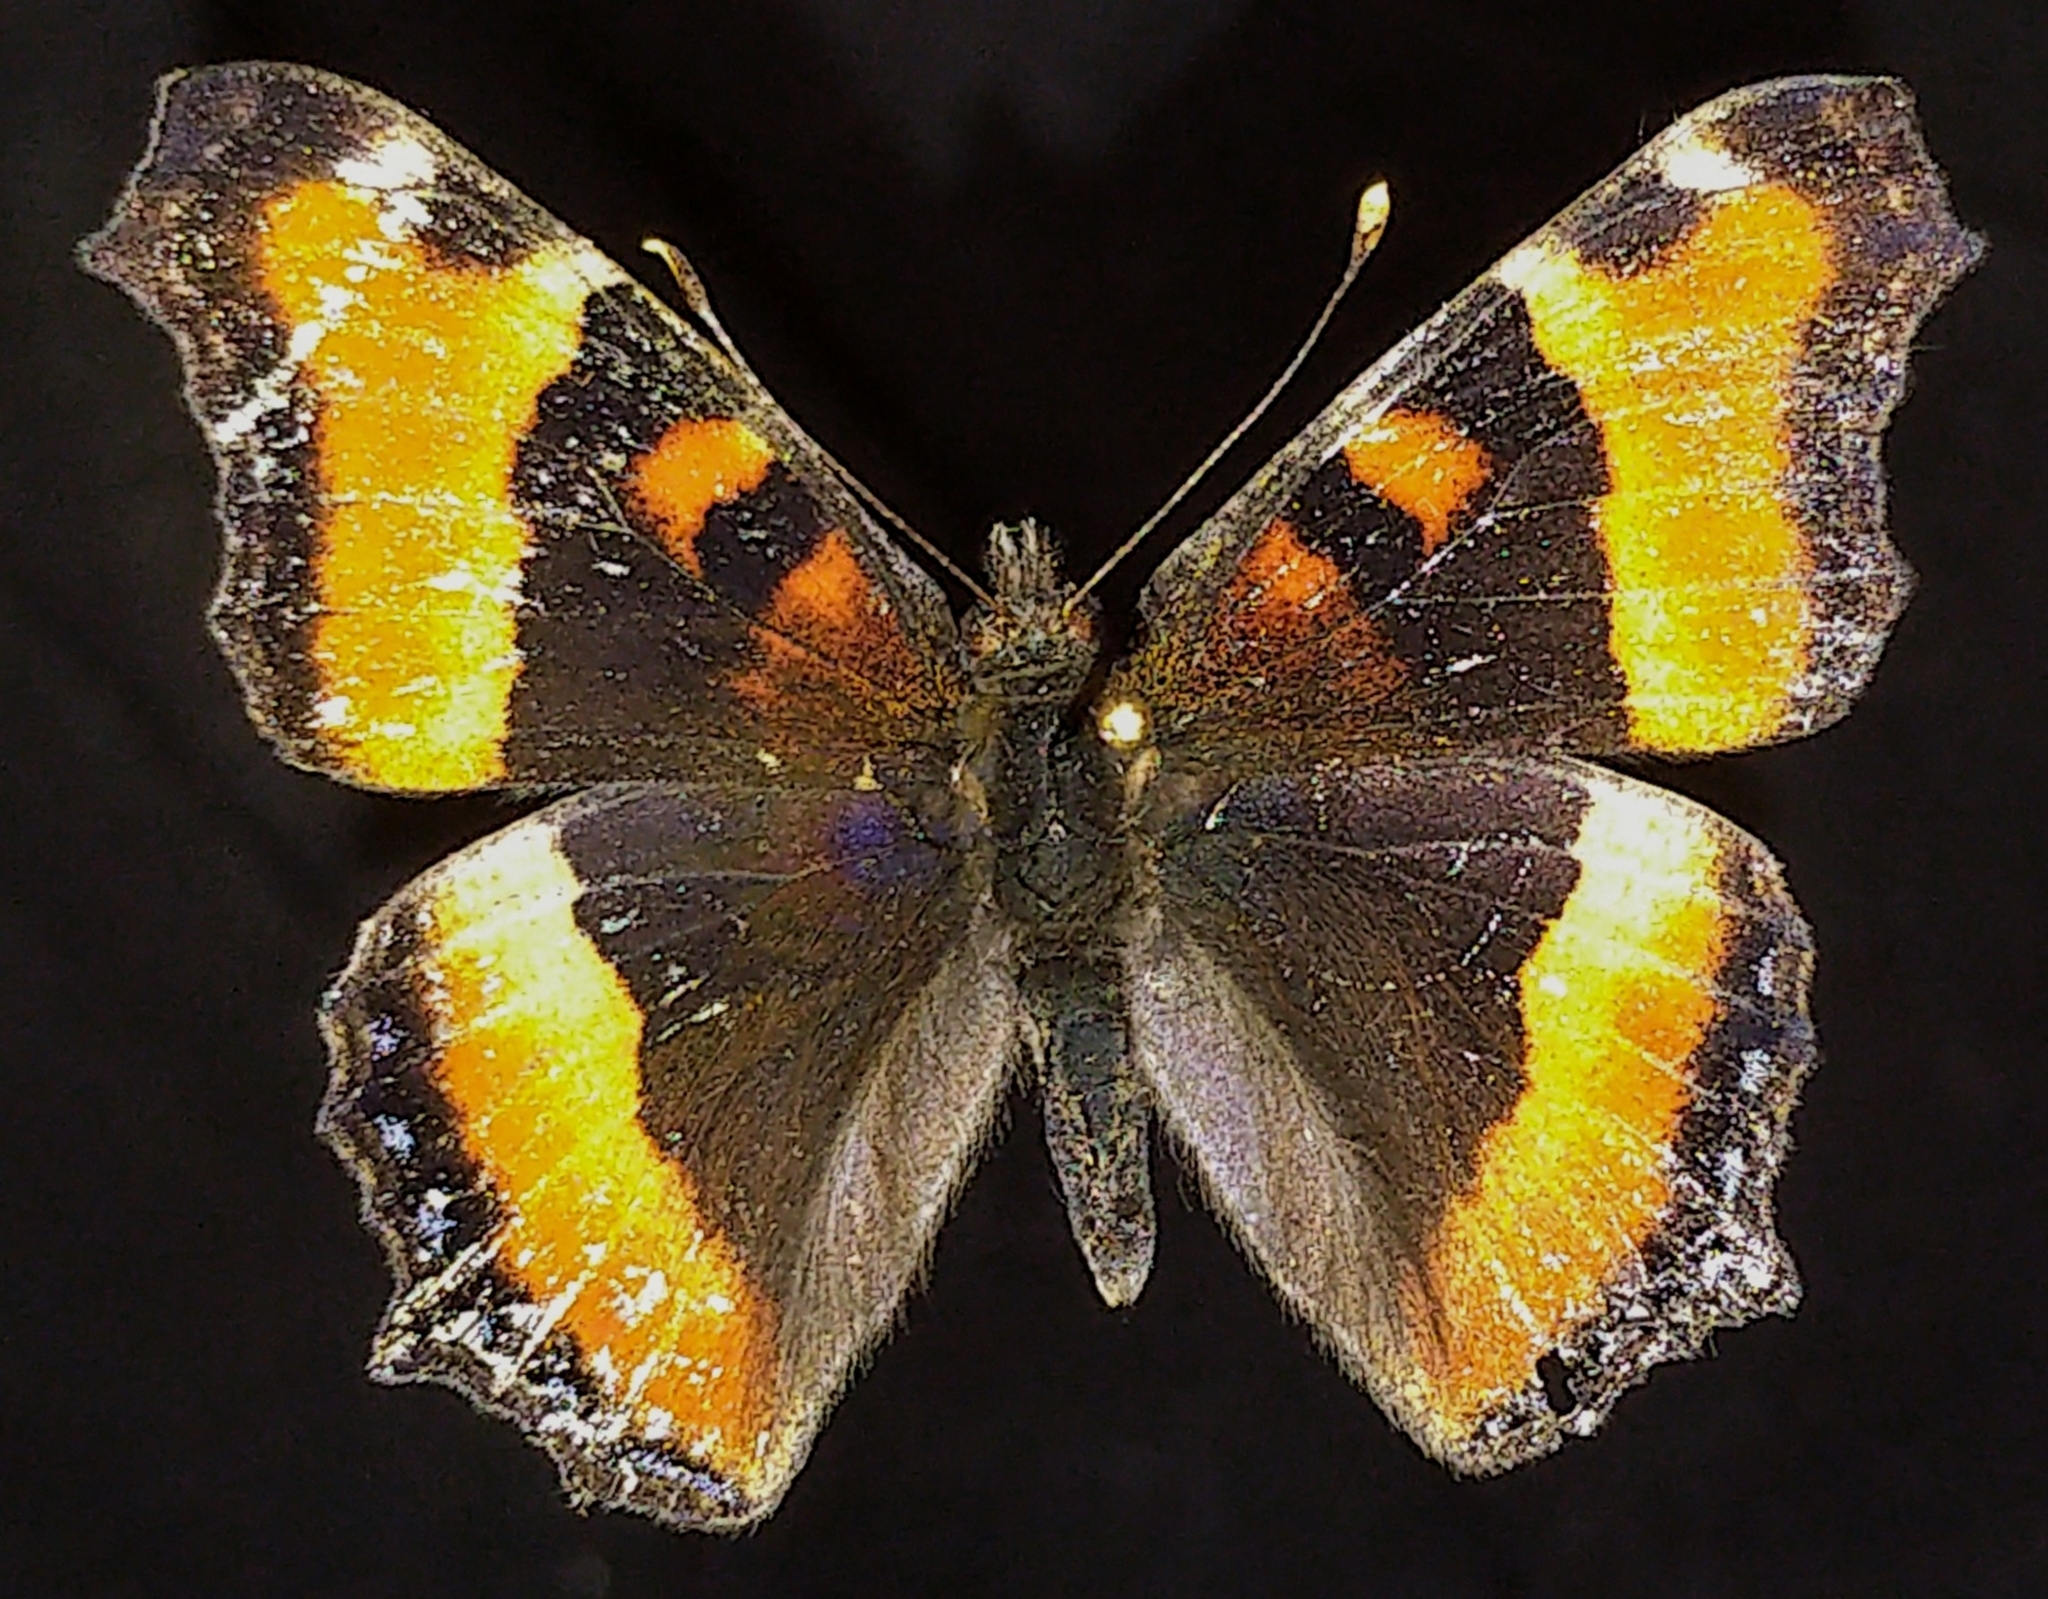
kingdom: Animalia
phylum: Arthropoda
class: Insecta
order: Lepidoptera
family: Nymphalidae
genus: Aglais
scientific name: Aglais milberti
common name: Milbert's tortoiseshell
